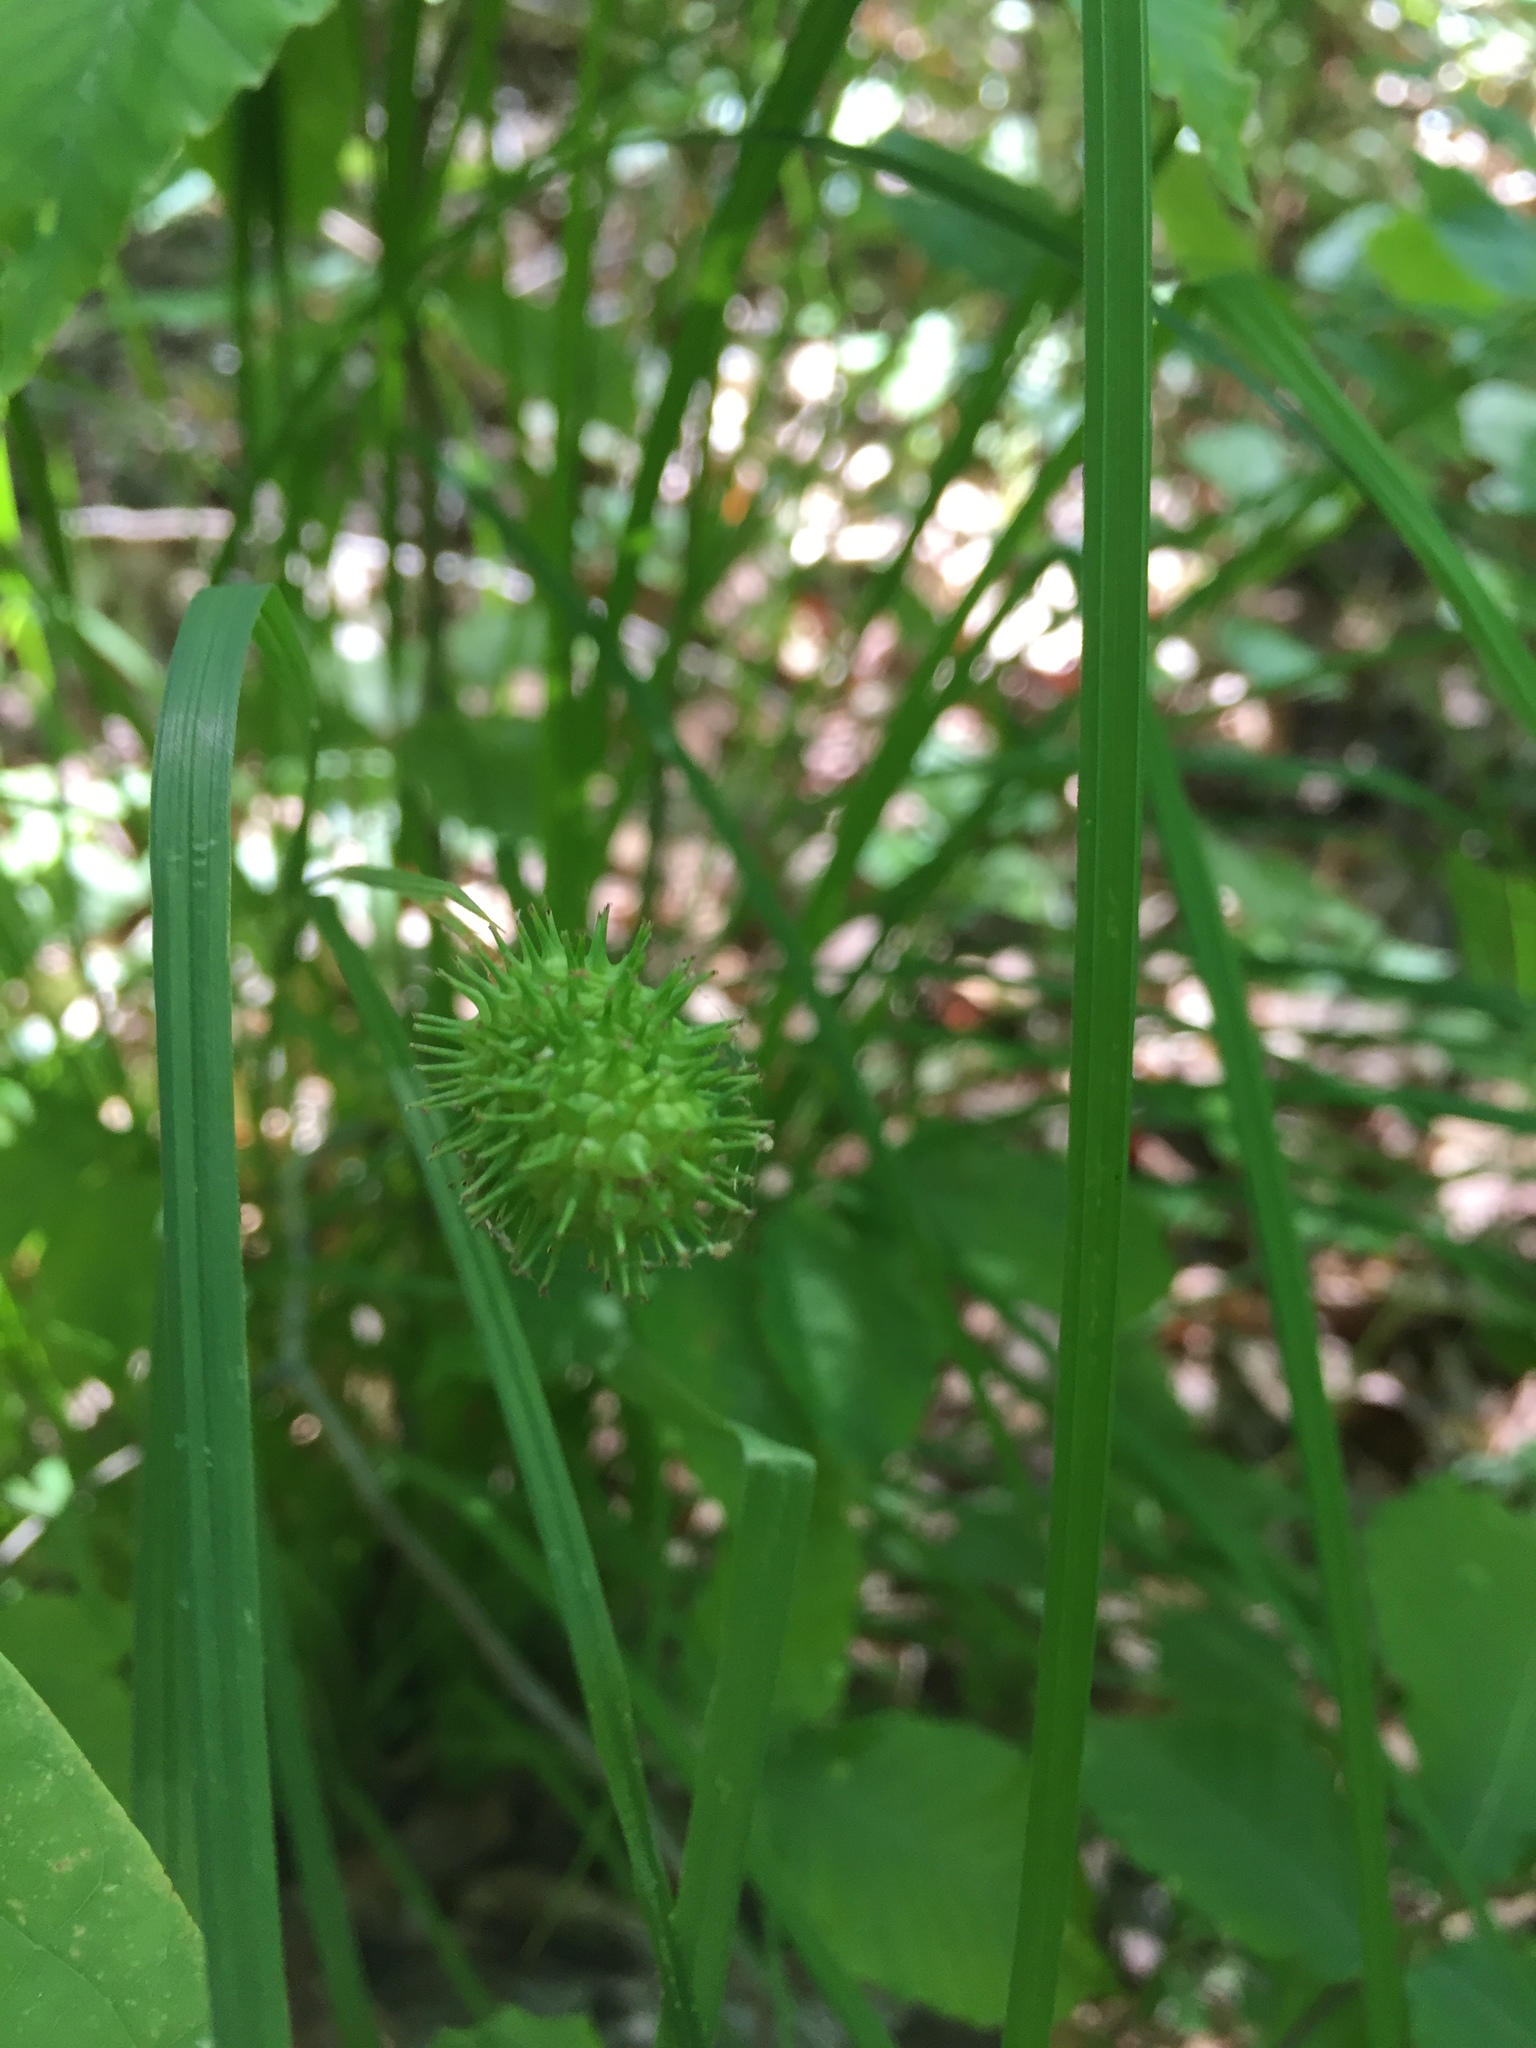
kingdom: Plantae
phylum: Tracheophyta
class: Liliopsida
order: Poales
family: Cyperaceae
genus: Carex
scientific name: Carex squarrosa
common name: Narrow-leaved cattail sedge
